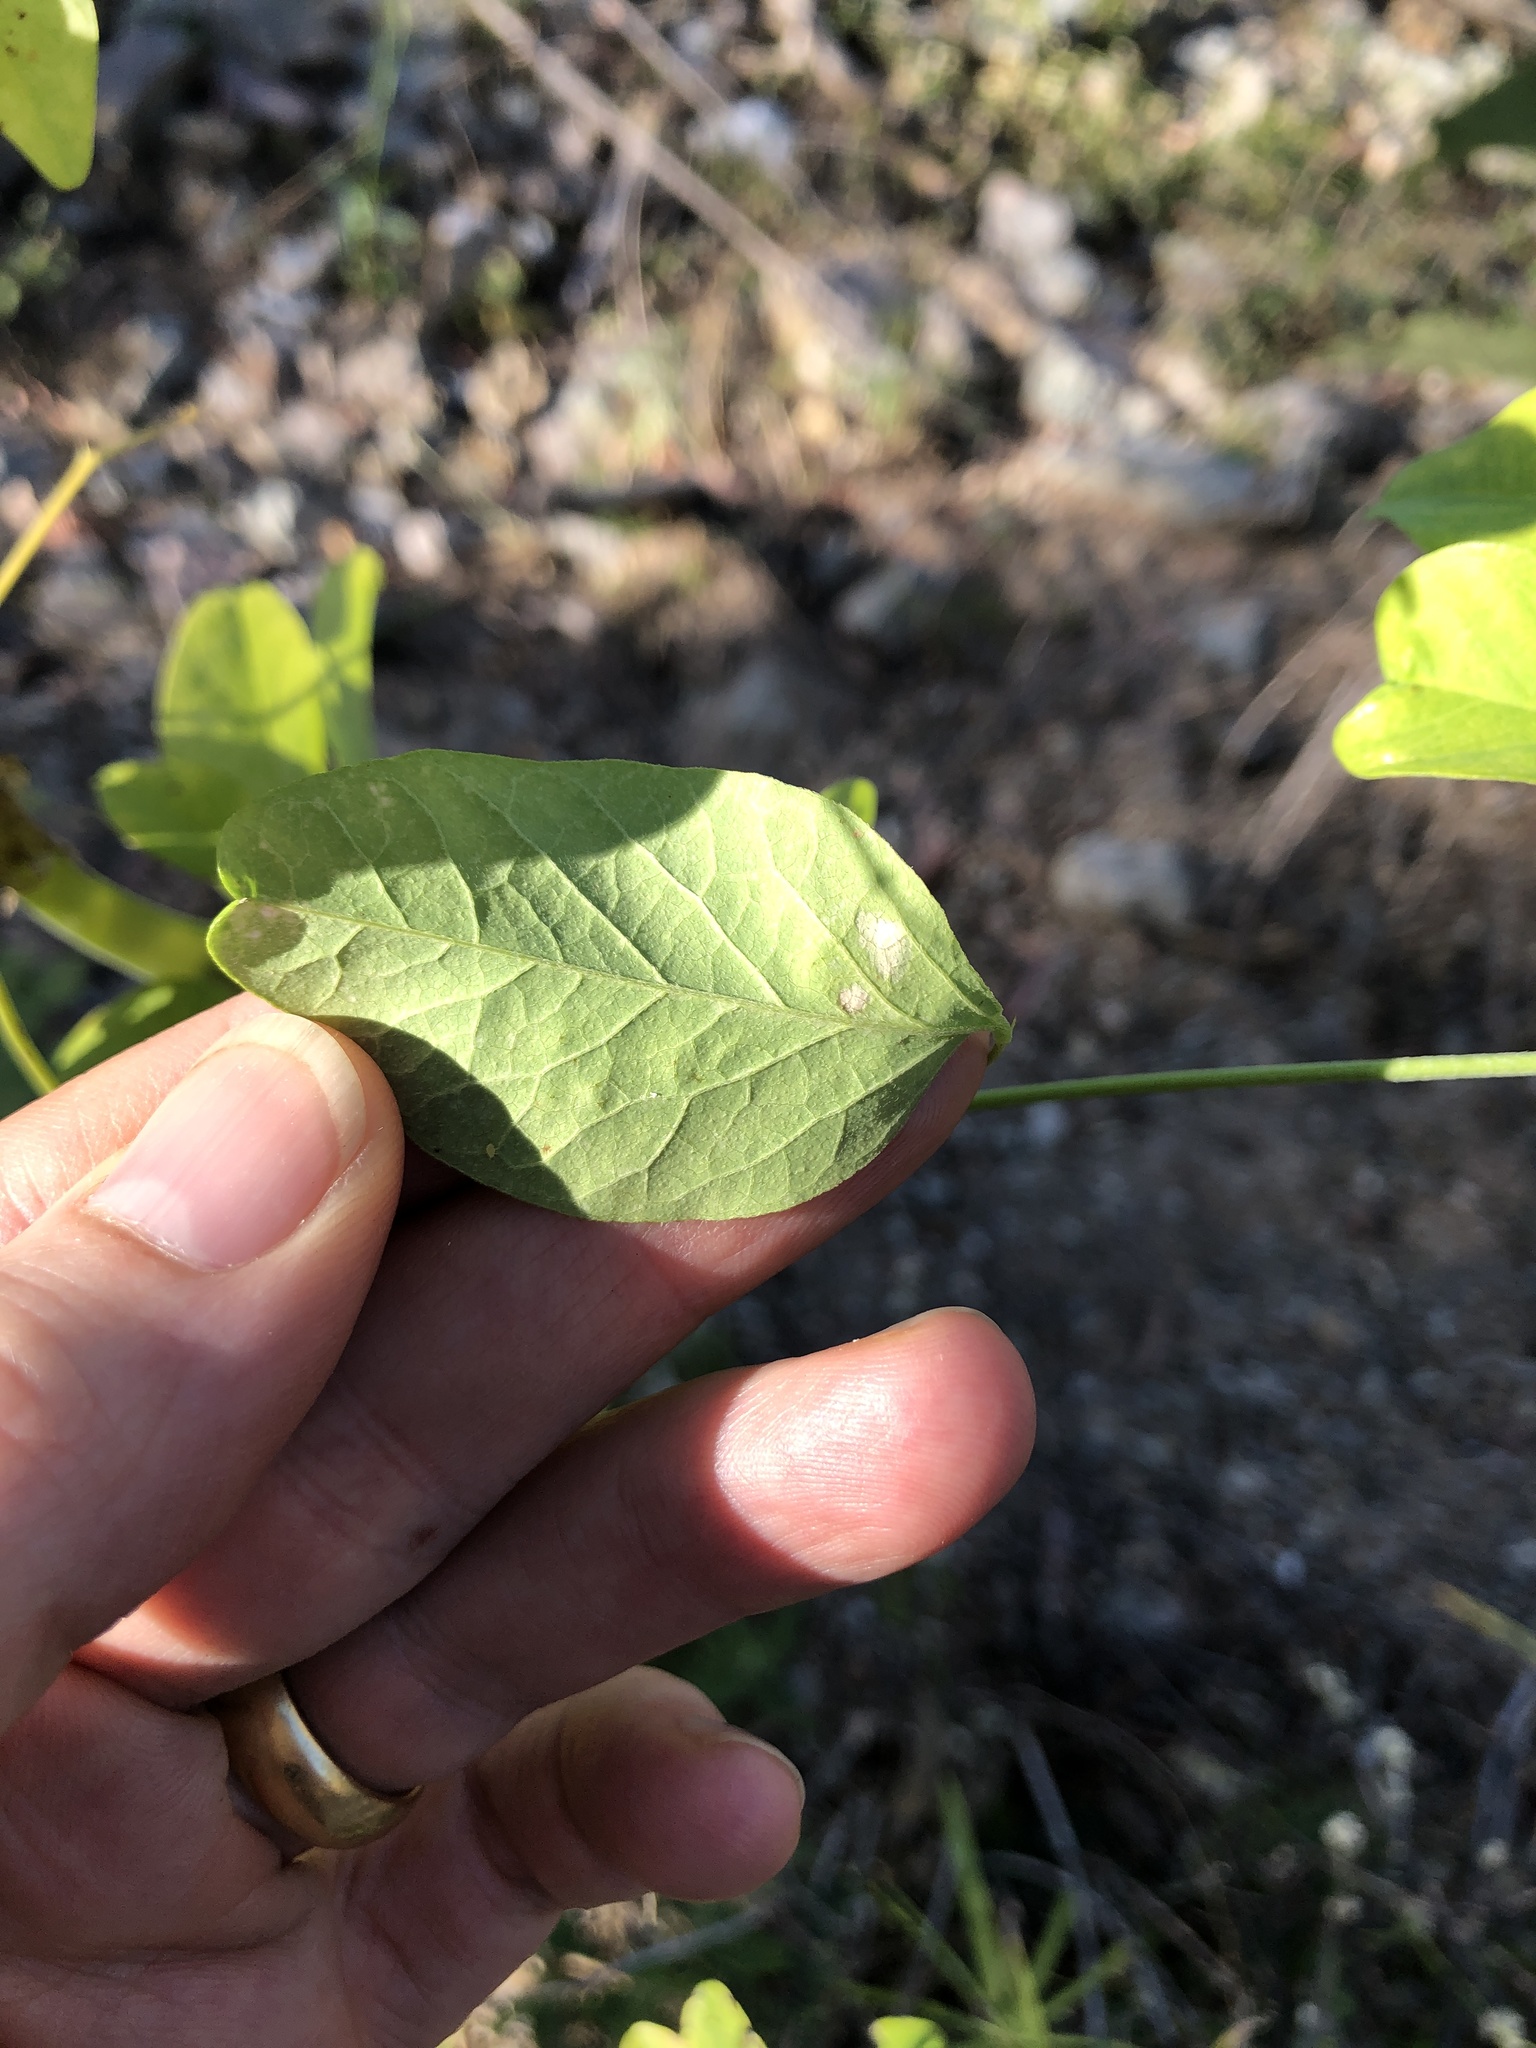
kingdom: Plantae
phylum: Tracheophyta
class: Magnoliopsida
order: Fabales
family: Fabaceae
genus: Clitoria
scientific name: Clitoria ternatea
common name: Asian pigeonwings
